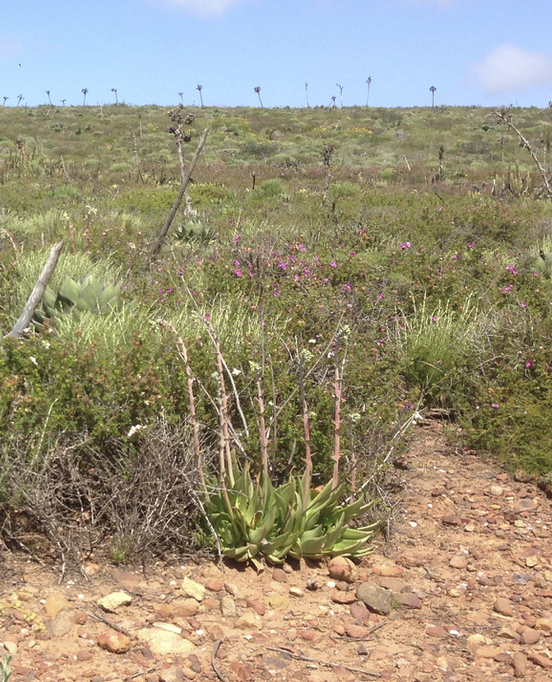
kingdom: Plantae
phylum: Tracheophyta
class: Magnoliopsida
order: Saxifragales
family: Crassulaceae
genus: Dudleya
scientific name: Dudleya ingens
